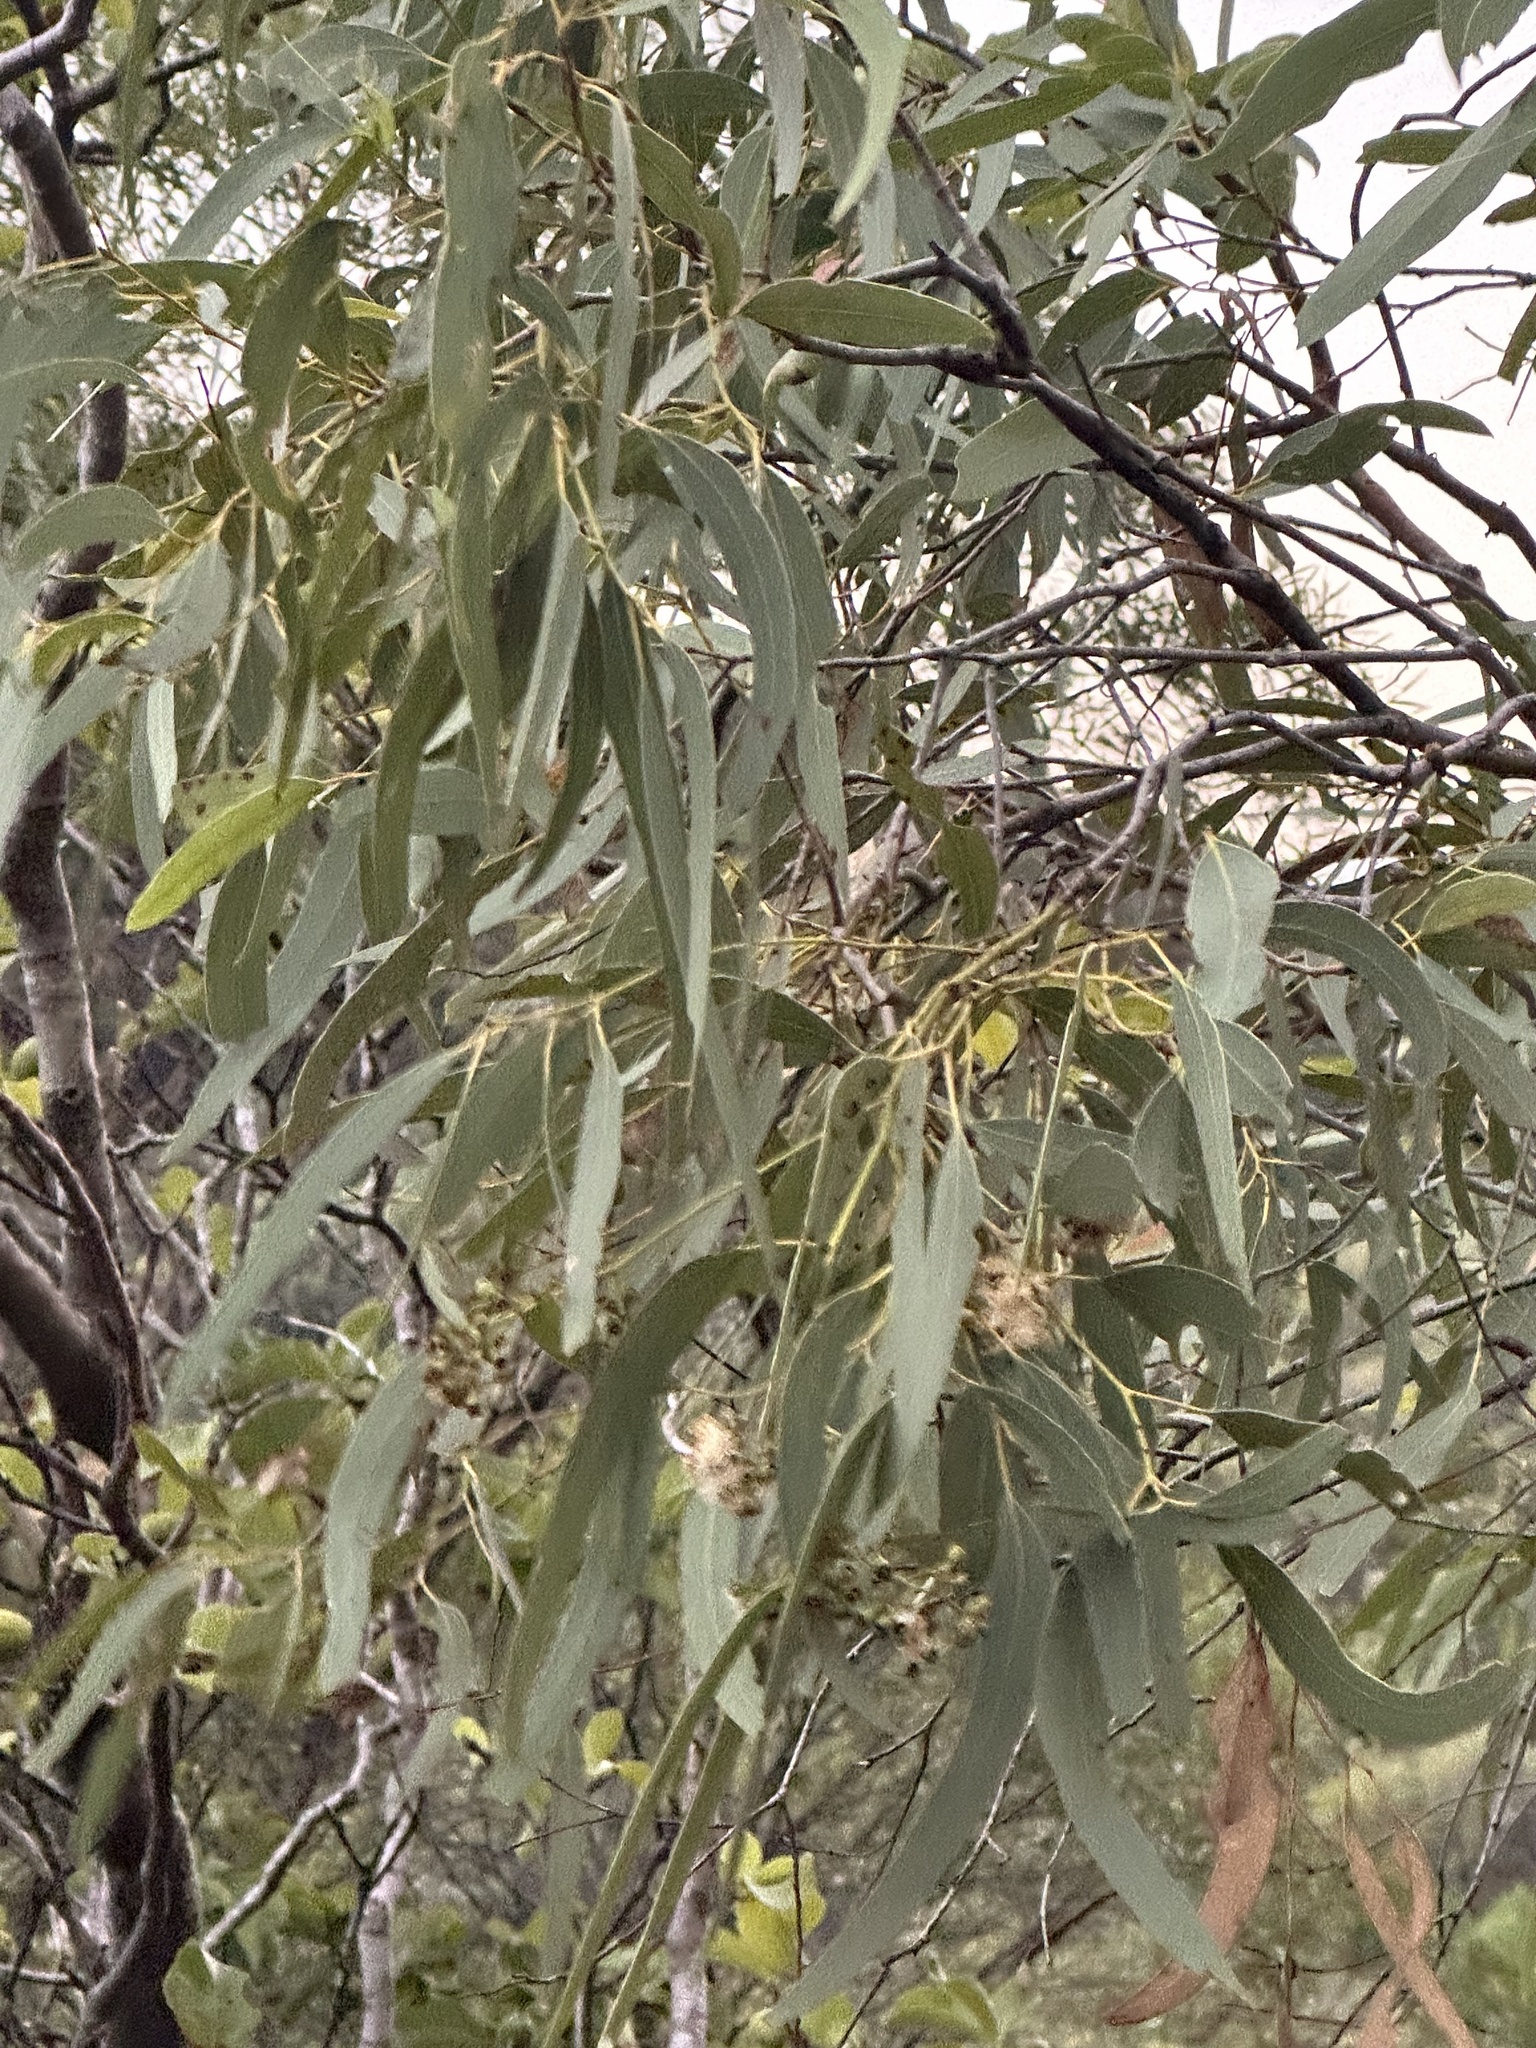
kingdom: Plantae
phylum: Tracheophyta
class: Magnoliopsida
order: Myrtales
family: Myrtaceae
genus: Eucalyptus
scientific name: Eucalyptus drepanophylla
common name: Queensland grey ironbark
